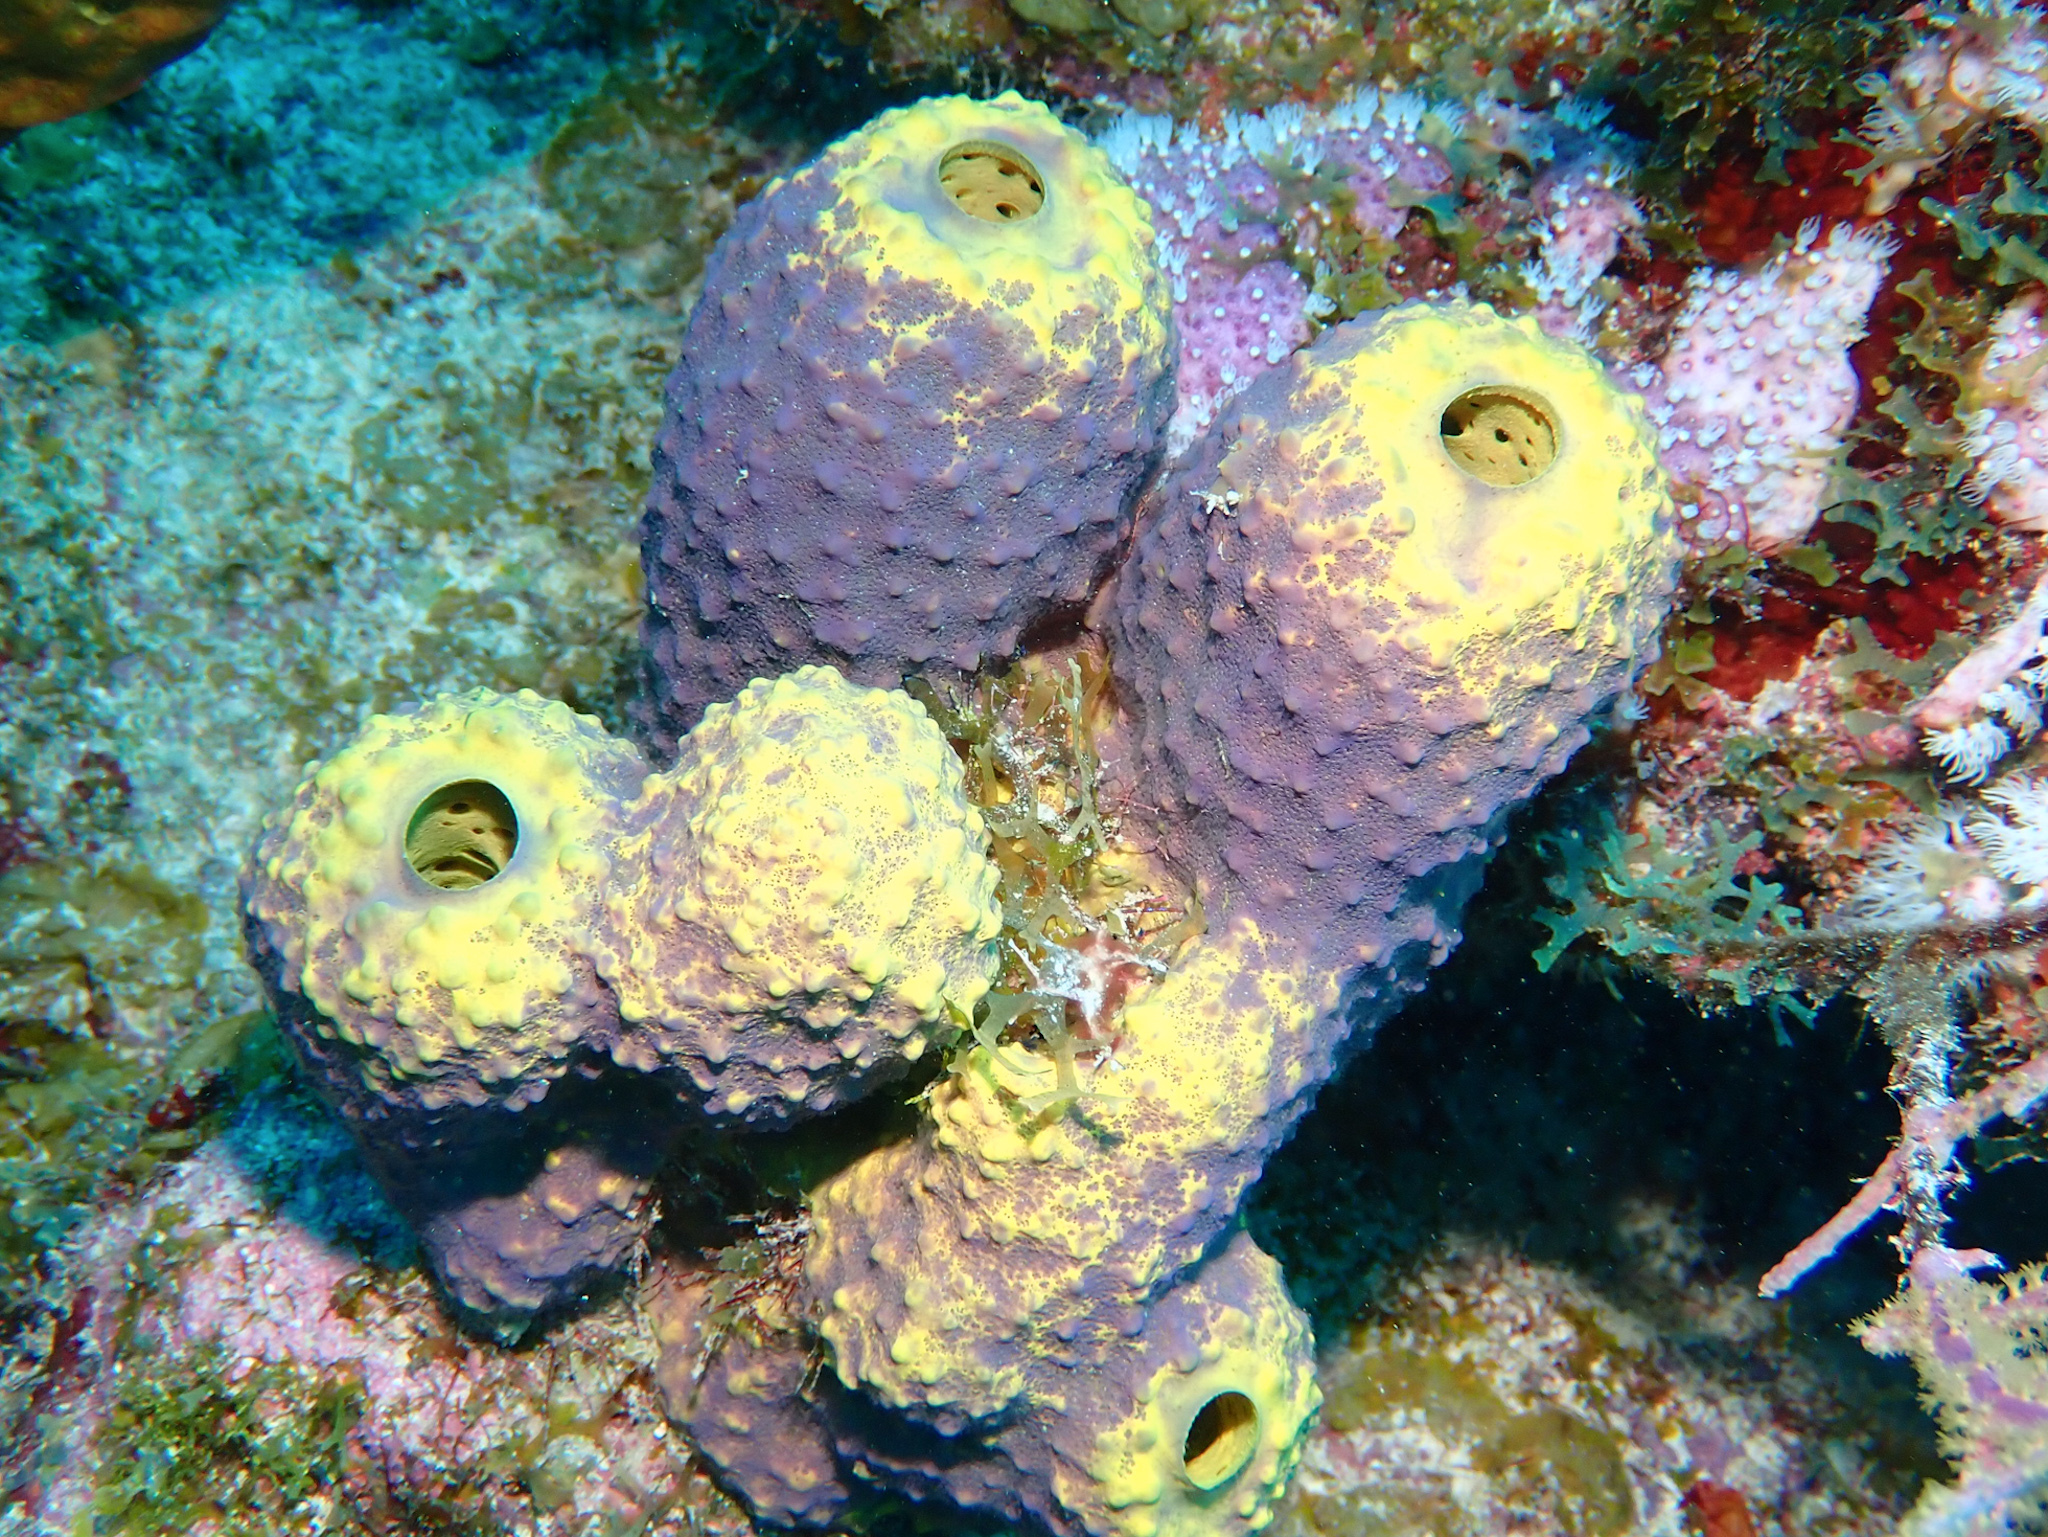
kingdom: Animalia
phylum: Porifera
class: Demospongiae
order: Verongiida
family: Aplysinidae
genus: Aiolochroia
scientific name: Aiolochroia crassa
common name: Branching tube sponge
